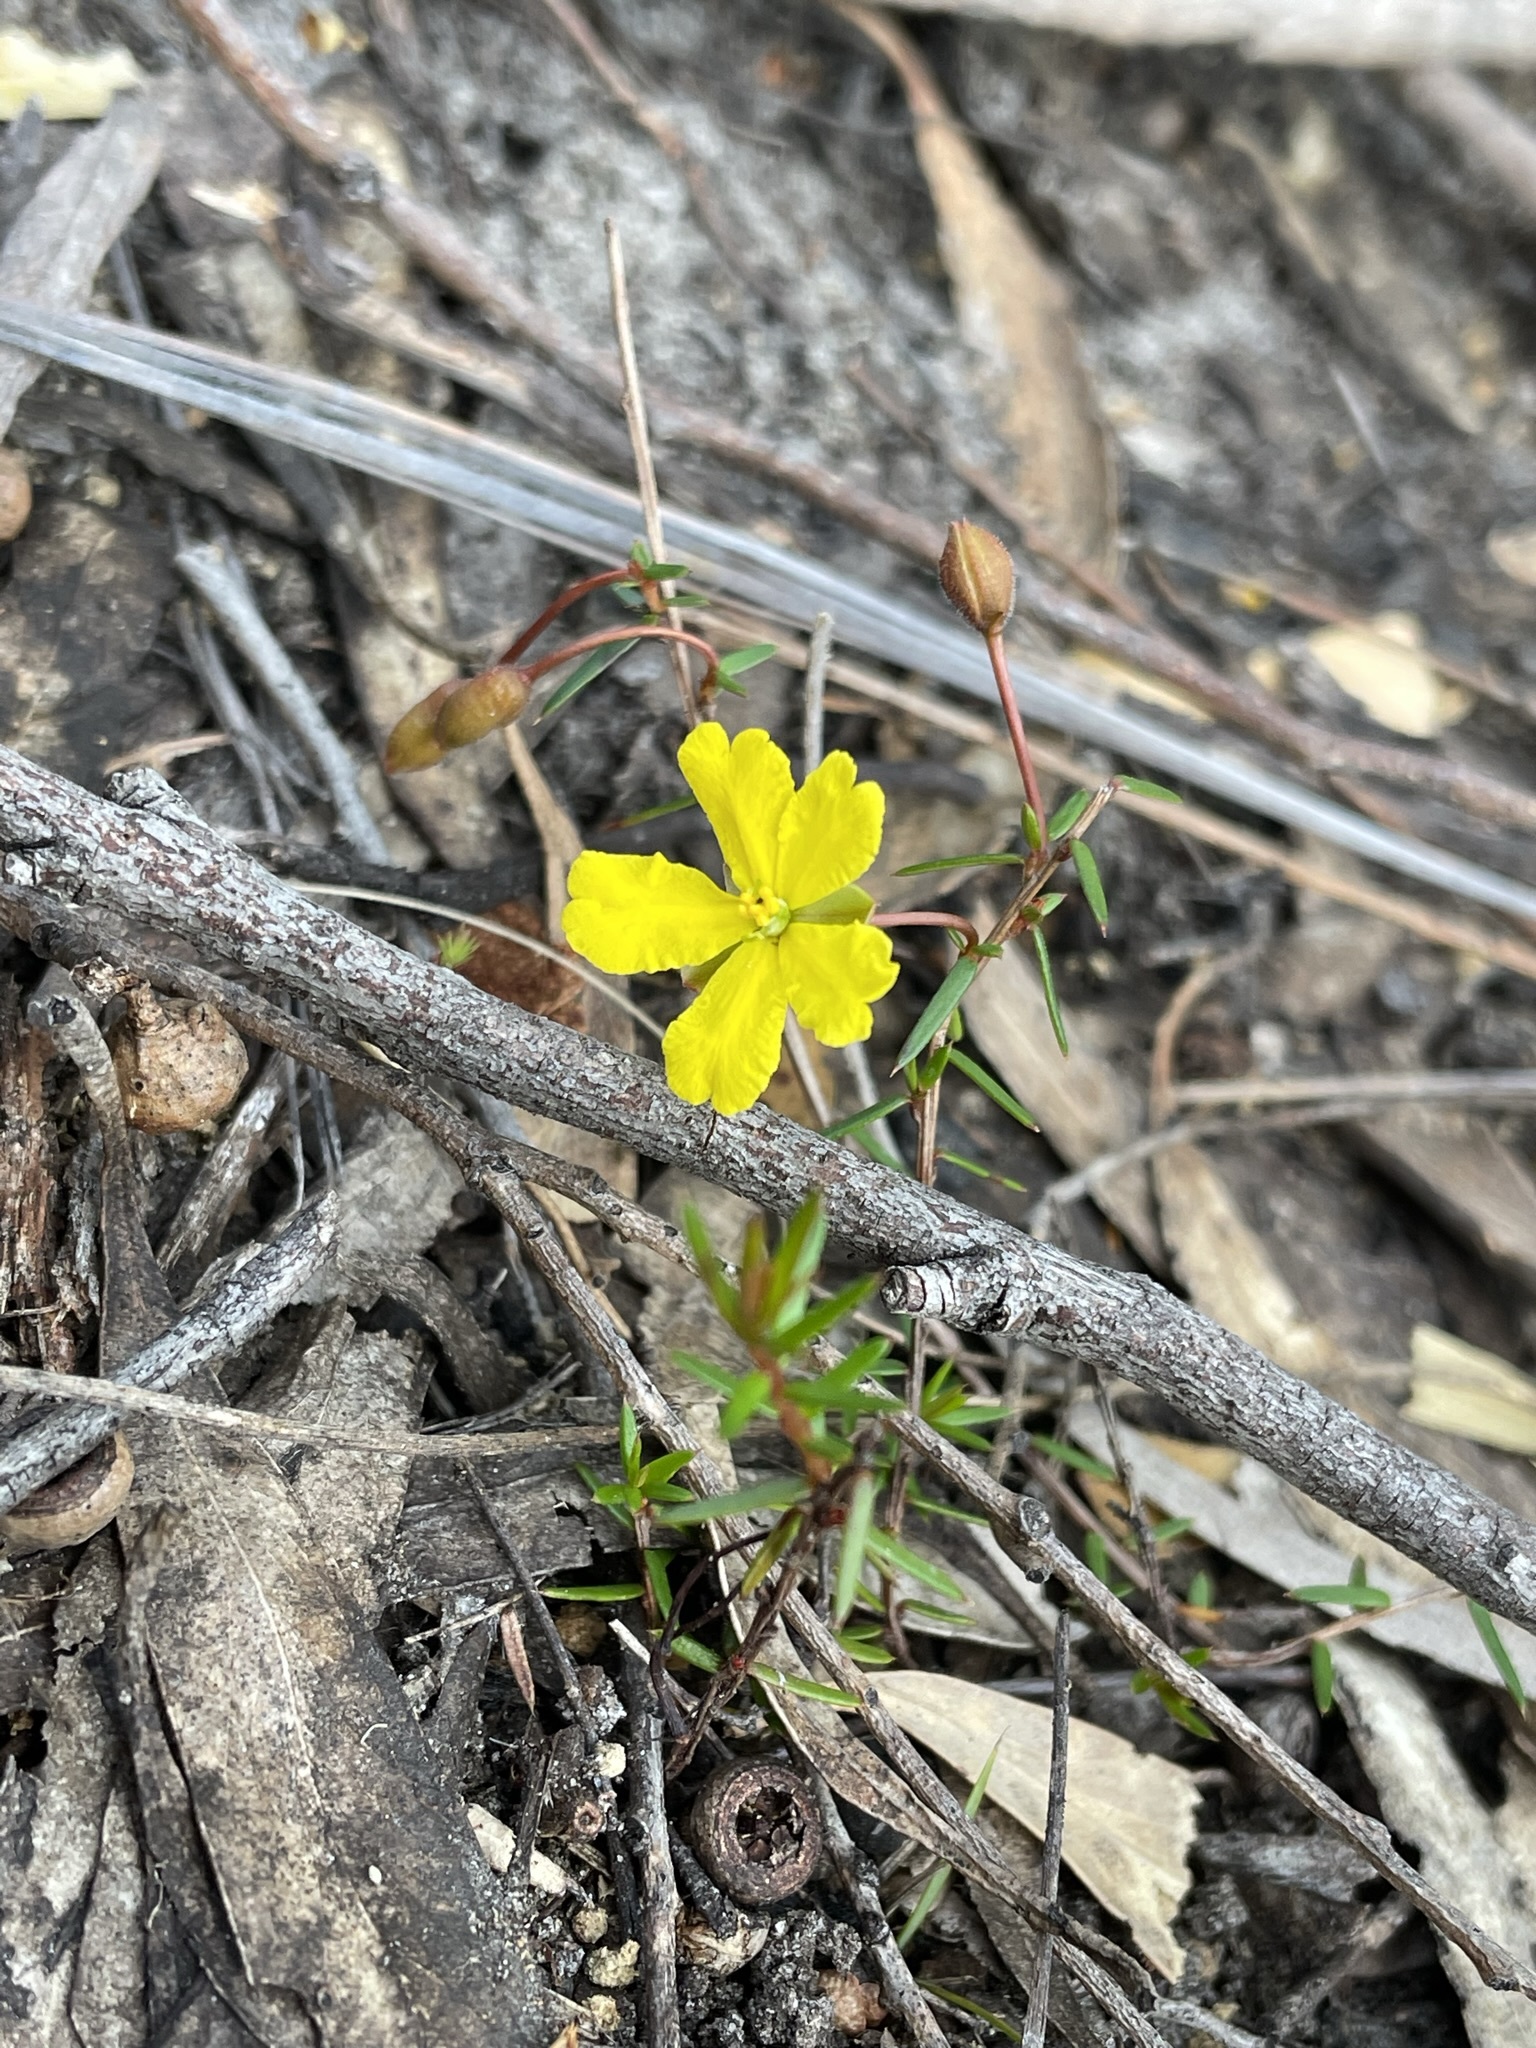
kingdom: Plantae
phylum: Tracheophyta
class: Magnoliopsida
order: Dilleniales
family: Dilleniaceae
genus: Hibbertia
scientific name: Hibbertia acicularis
